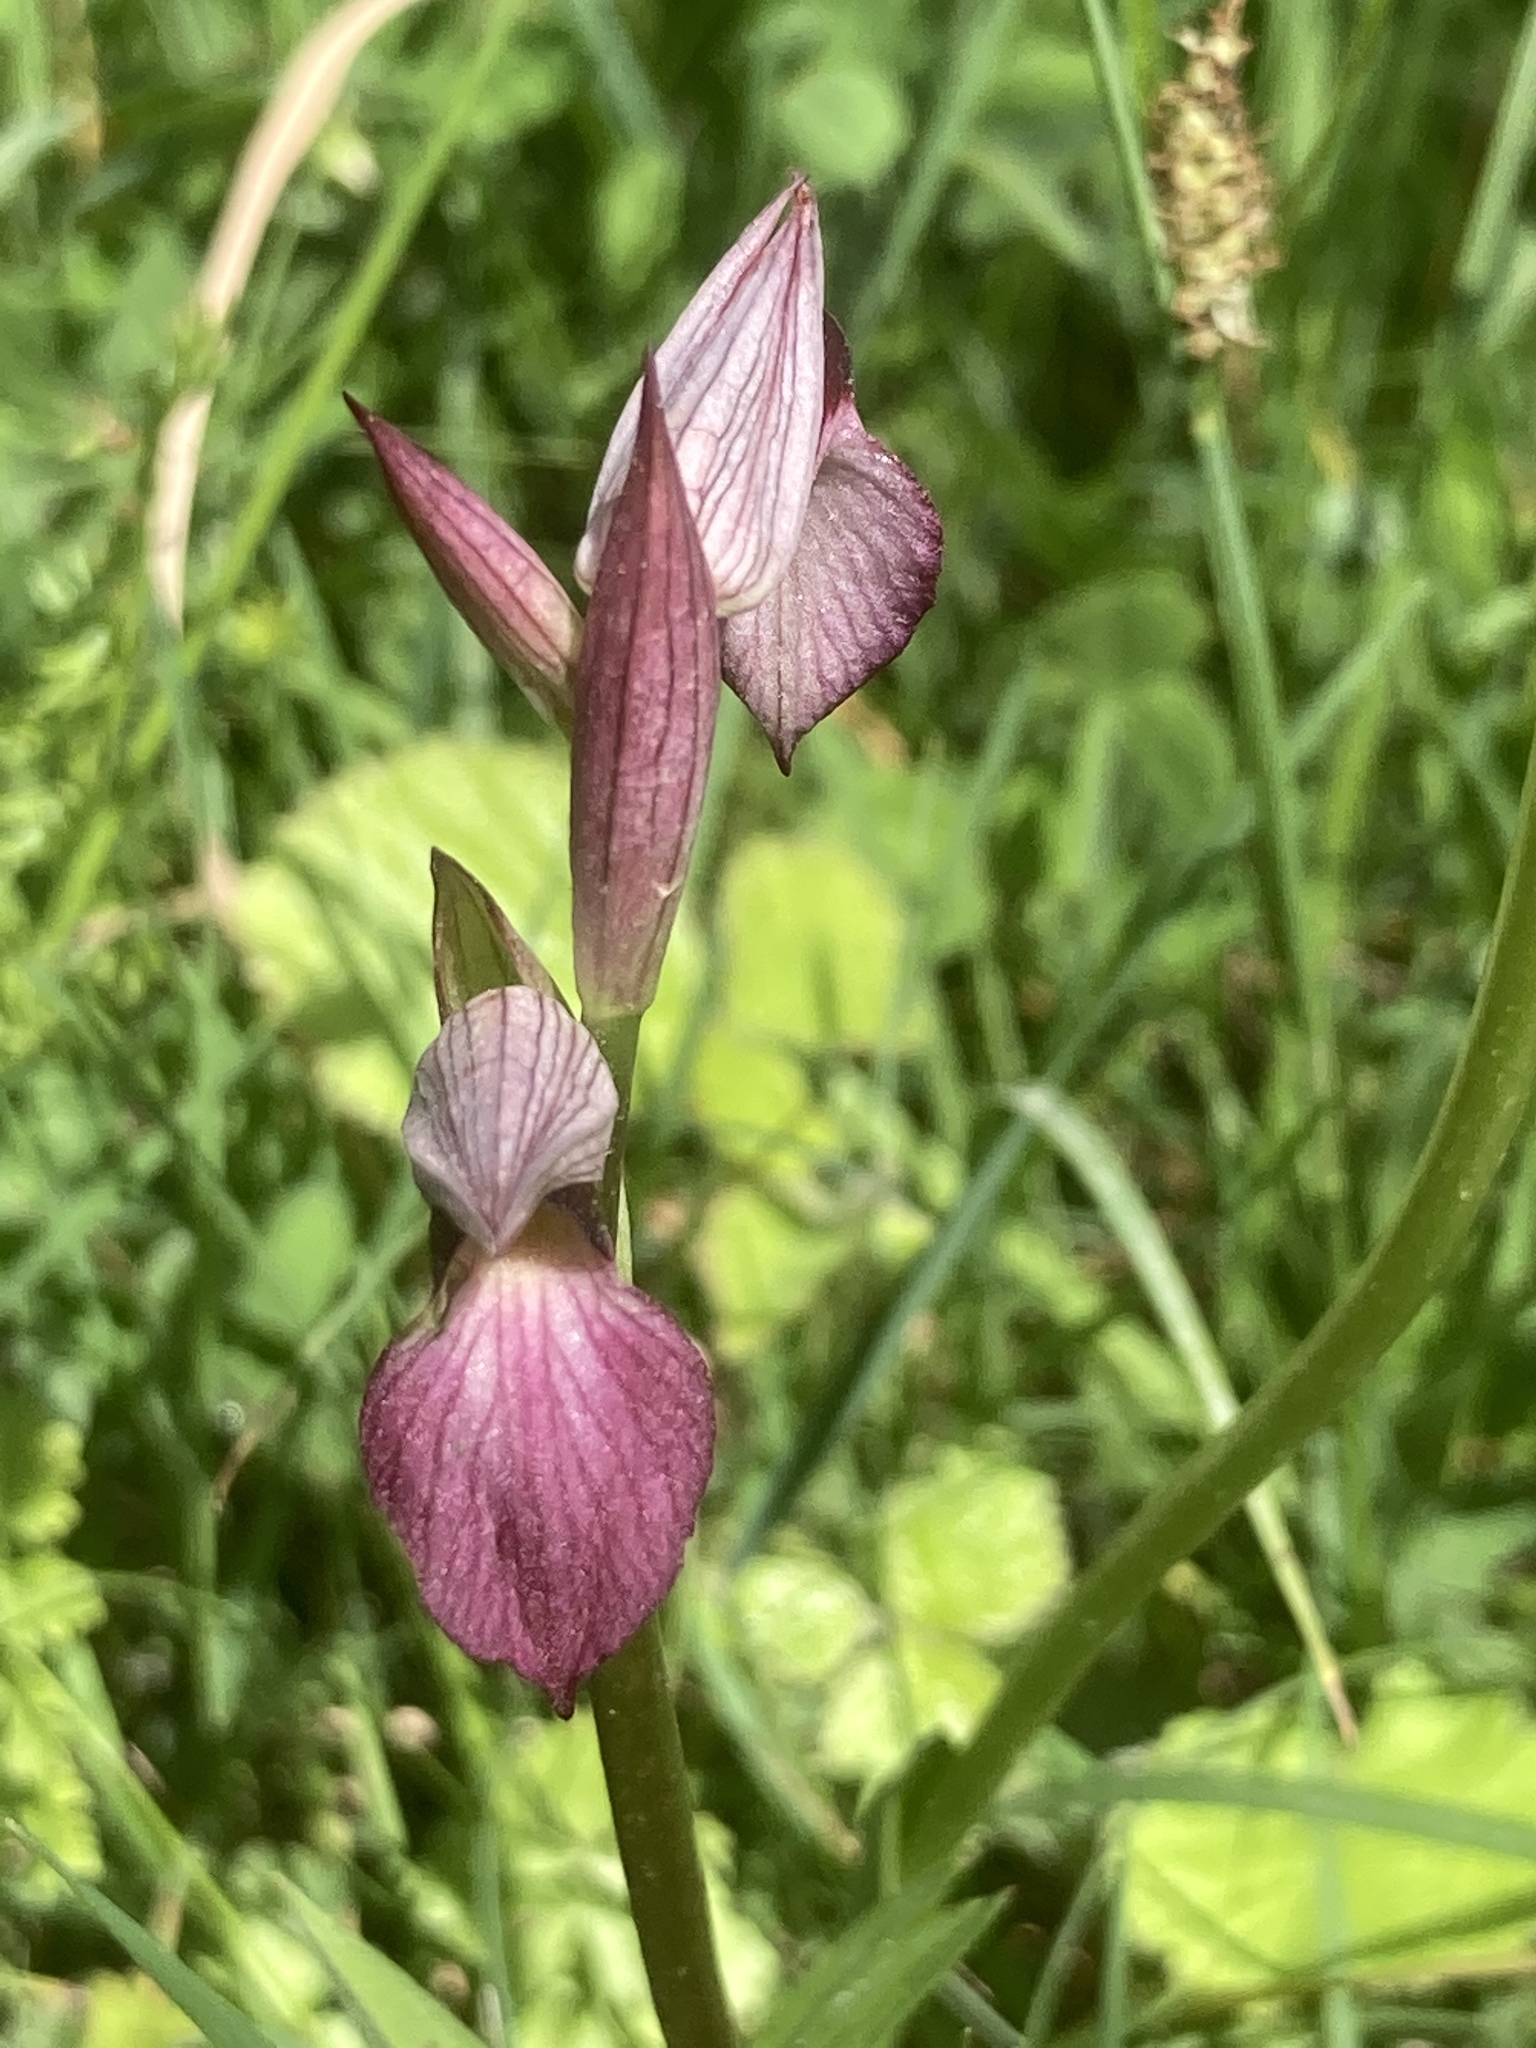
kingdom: Plantae
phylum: Tracheophyta
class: Liliopsida
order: Asparagales
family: Orchidaceae
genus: Serapias
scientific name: Serapias lingua
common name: Tongue-orchid
